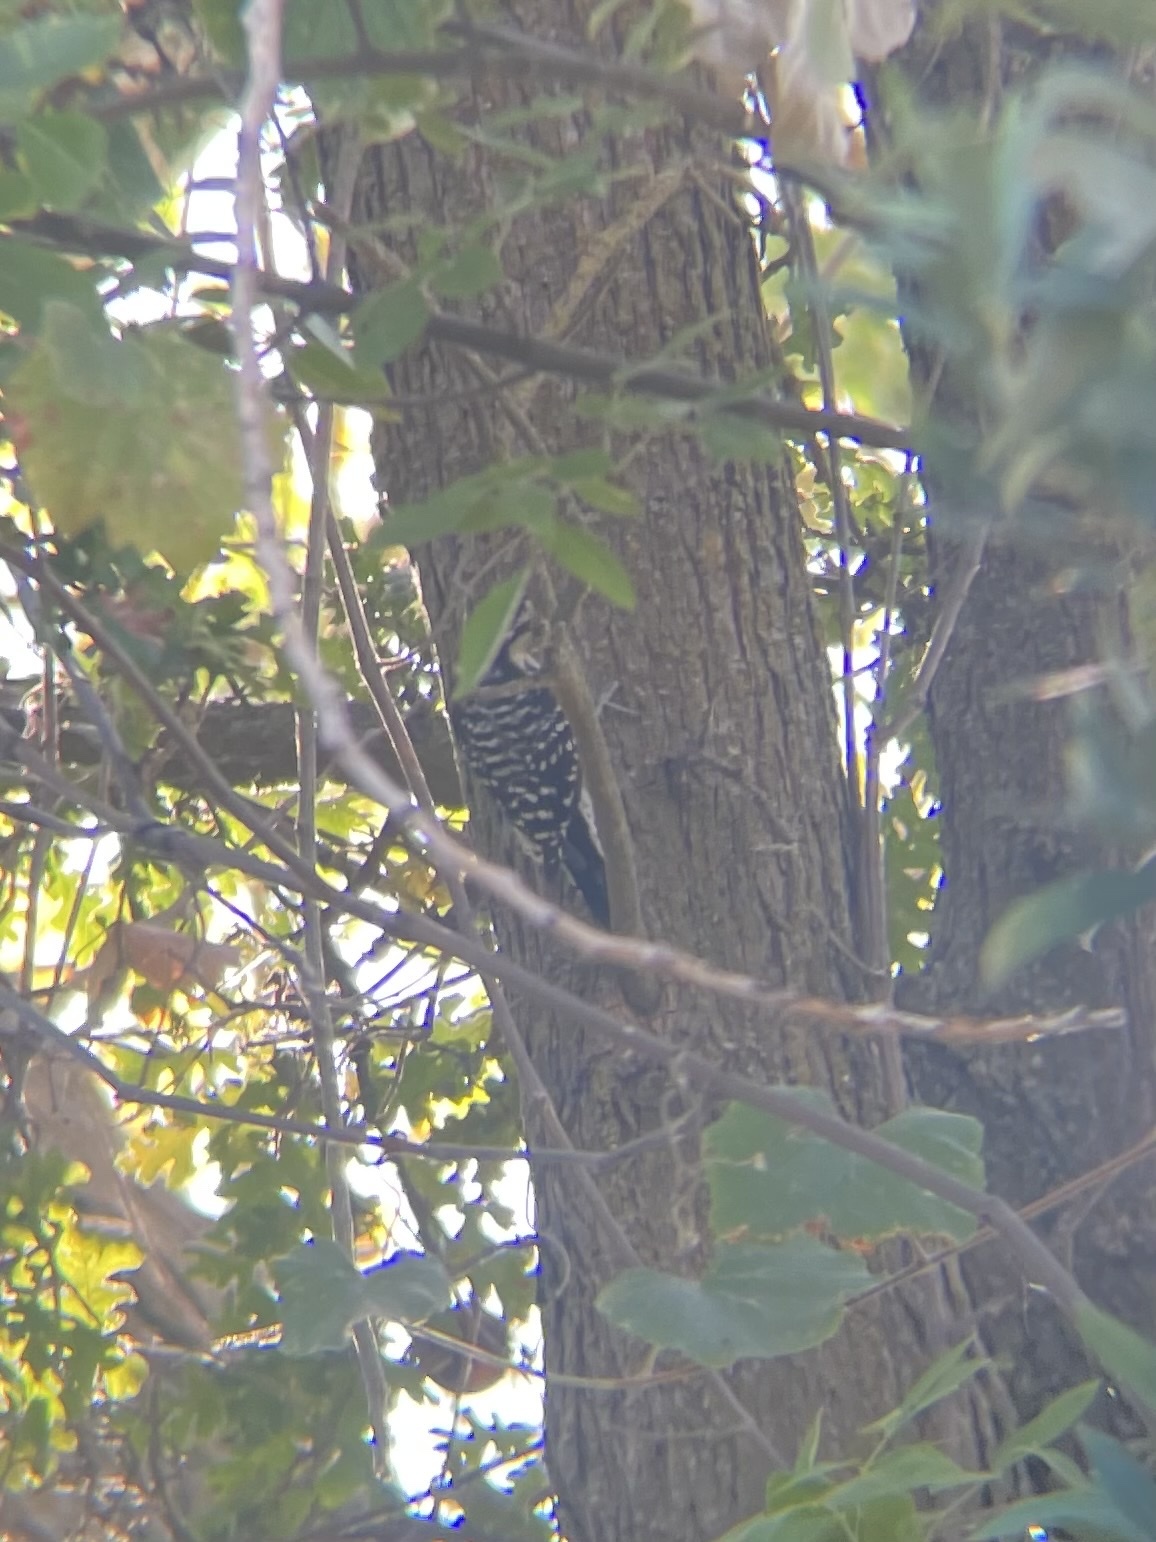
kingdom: Animalia
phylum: Chordata
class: Aves
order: Piciformes
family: Picidae
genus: Dryobates
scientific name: Dryobates nuttallii
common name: Nuttall's woodpecker
